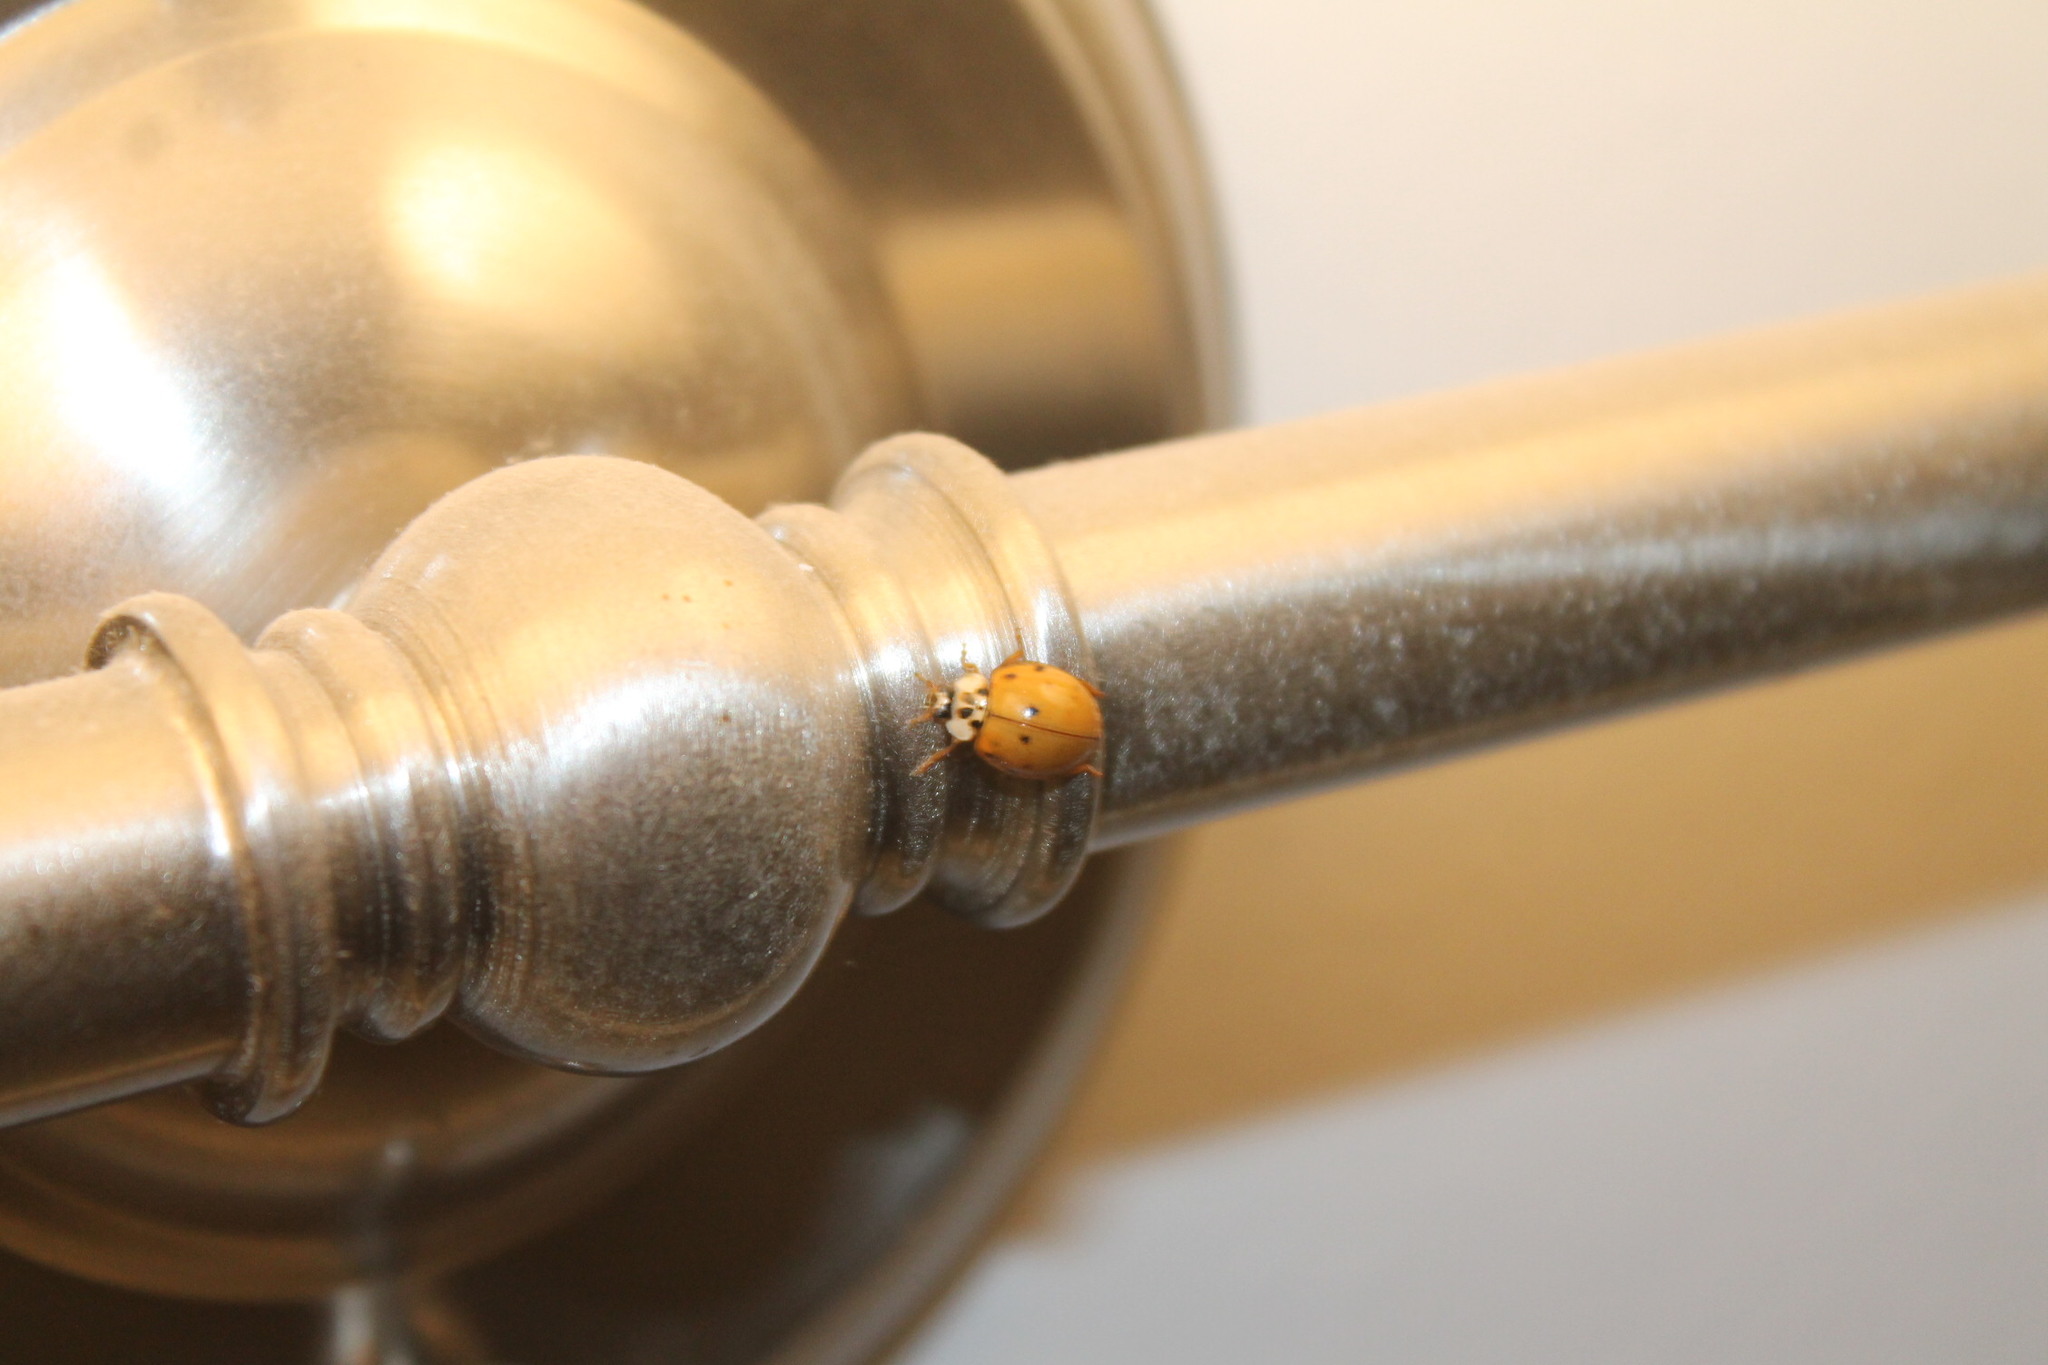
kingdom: Animalia
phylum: Arthropoda
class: Insecta
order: Coleoptera
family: Coccinellidae
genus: Harmonia
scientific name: Harmonia axyridis
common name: Harlequin ladybird
